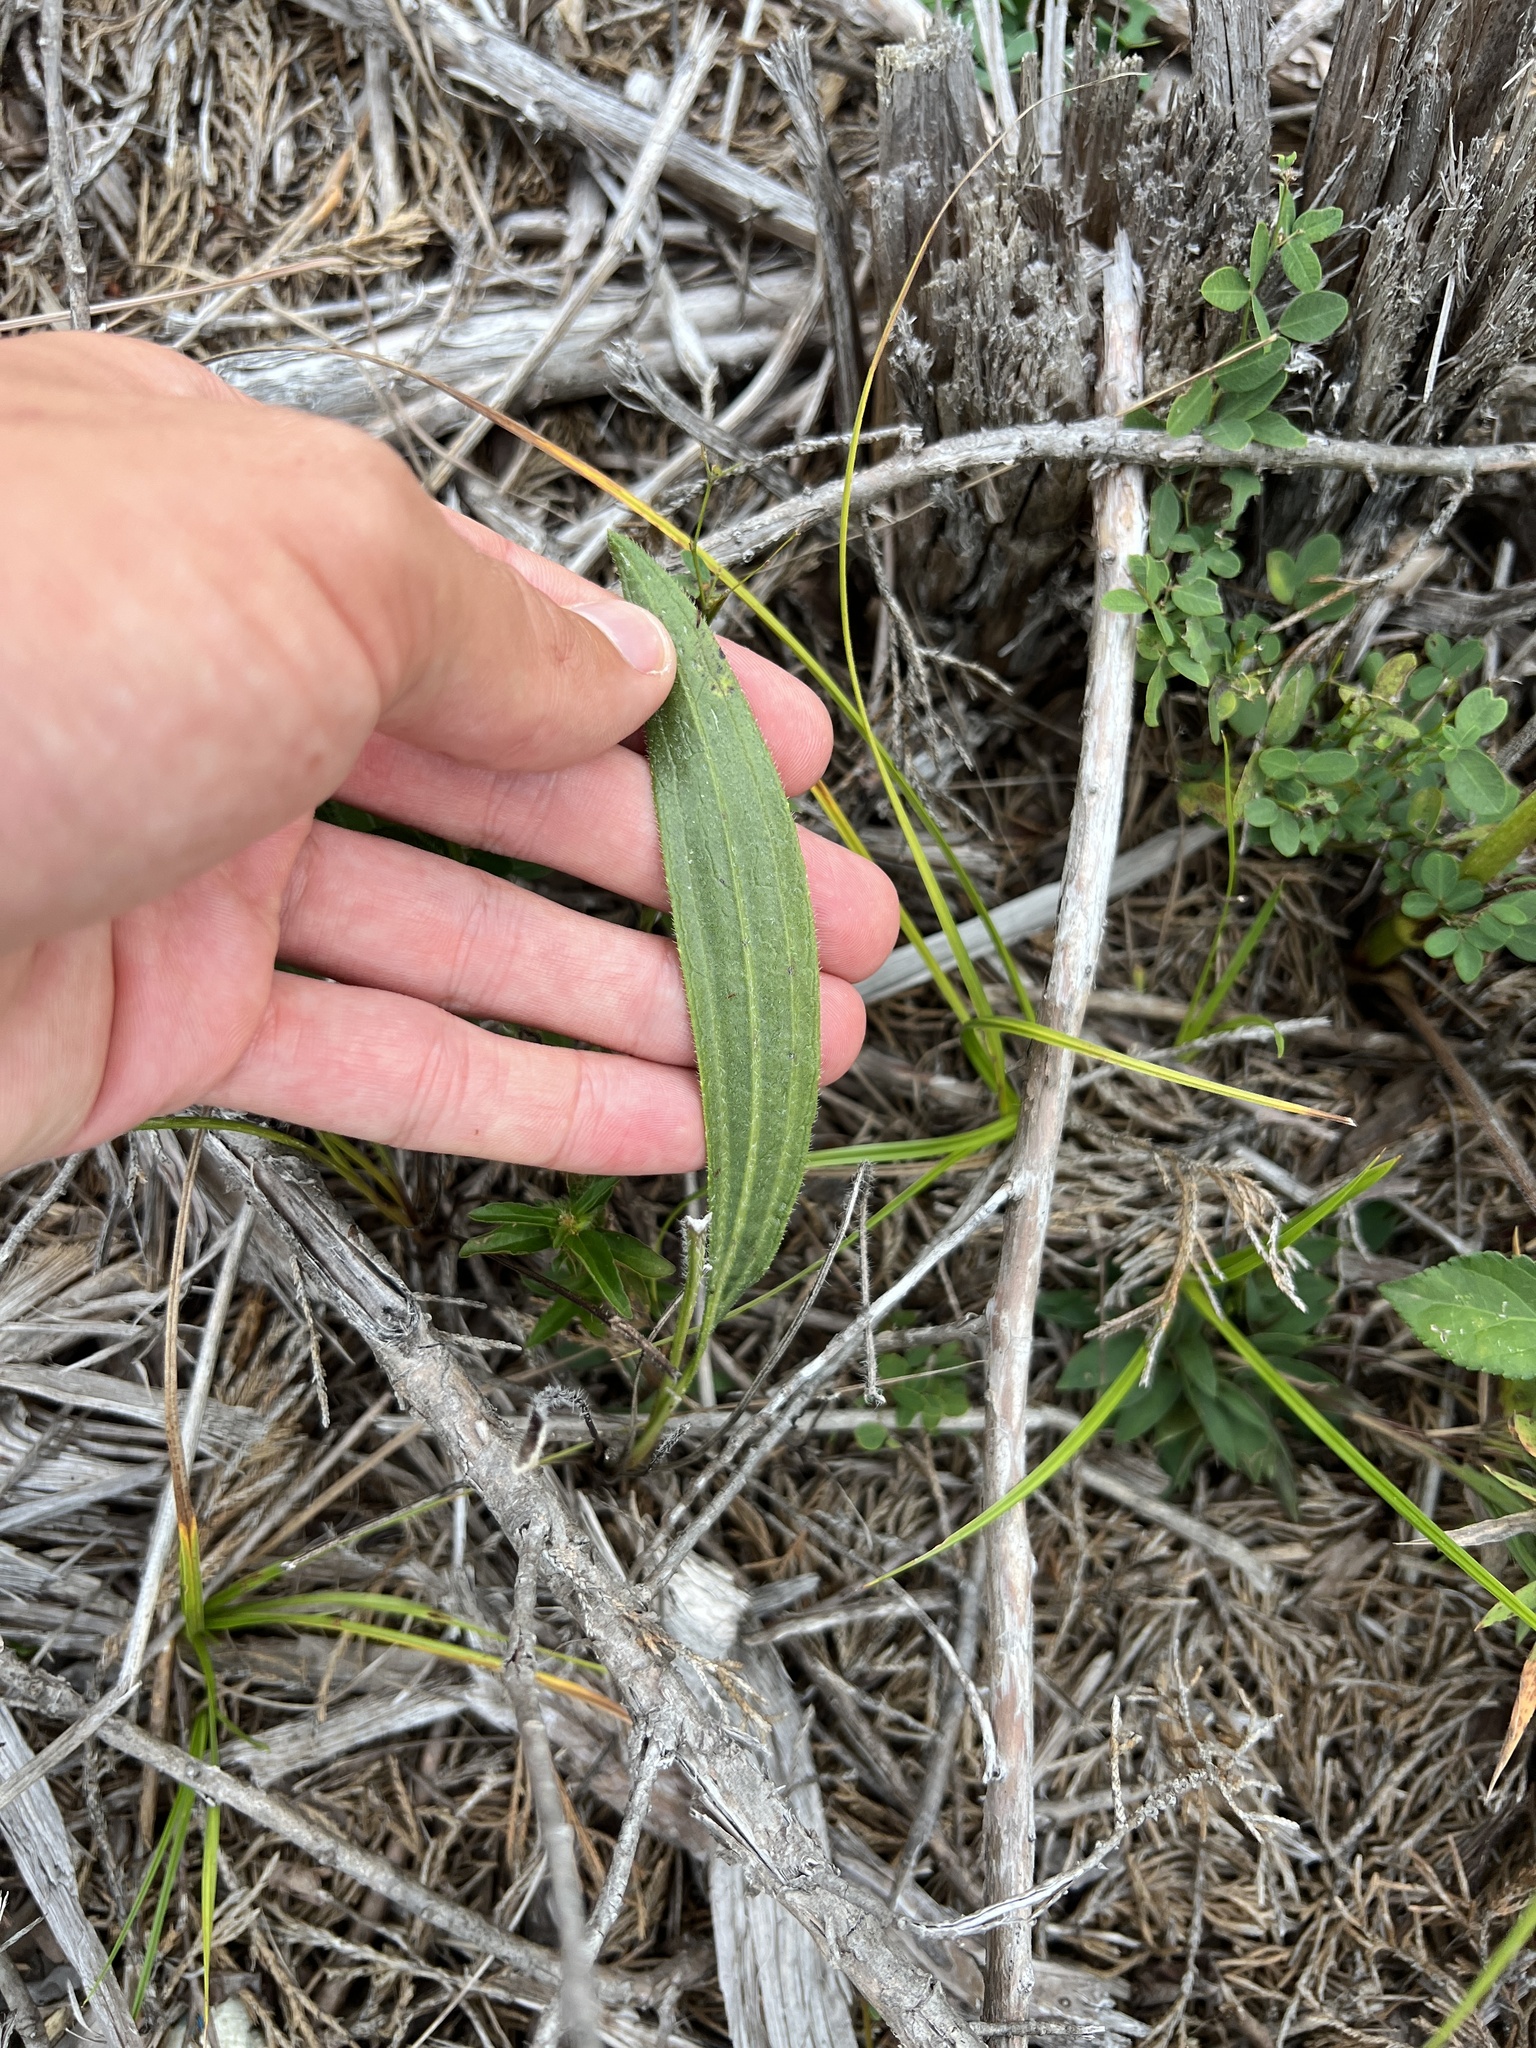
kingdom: Plantae
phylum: Tracheophyta
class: Magnoliopsida
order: Asterales
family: Asteraceae
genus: Echinacea
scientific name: Echinacea pallida
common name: Pale echinacea
